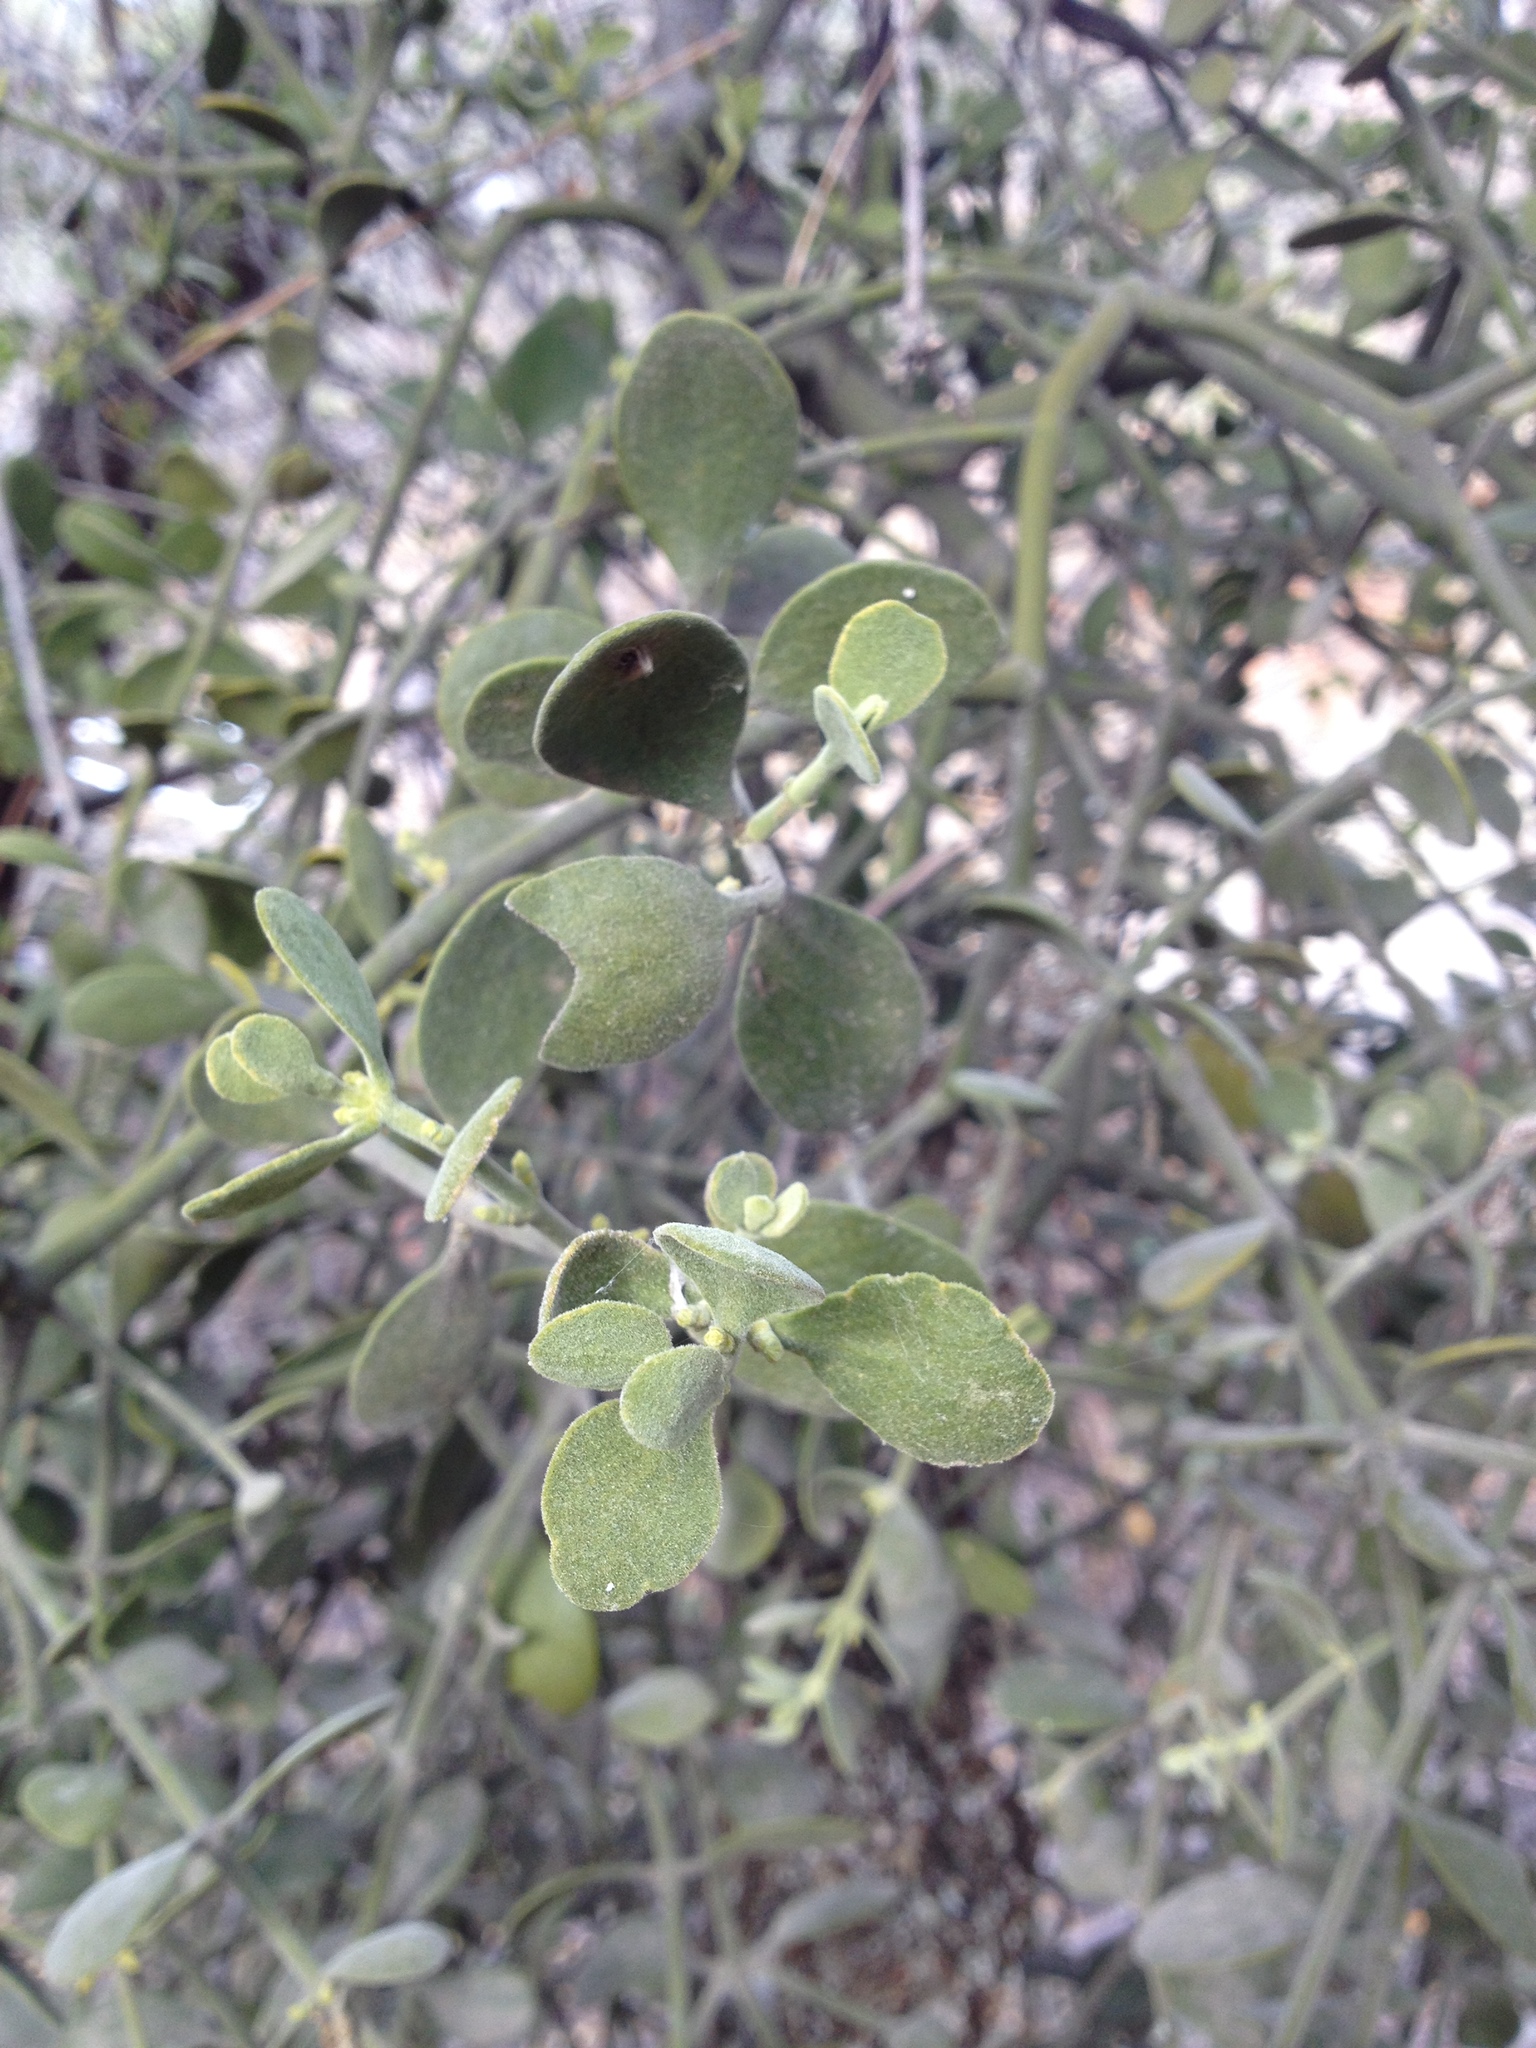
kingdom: Plantae
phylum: Tracheophyta
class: Magnoliopsida
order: Santalales
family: Viscaceae
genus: Phoradendron
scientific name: Phoradendron leucarpum
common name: Pacific mistletoe
